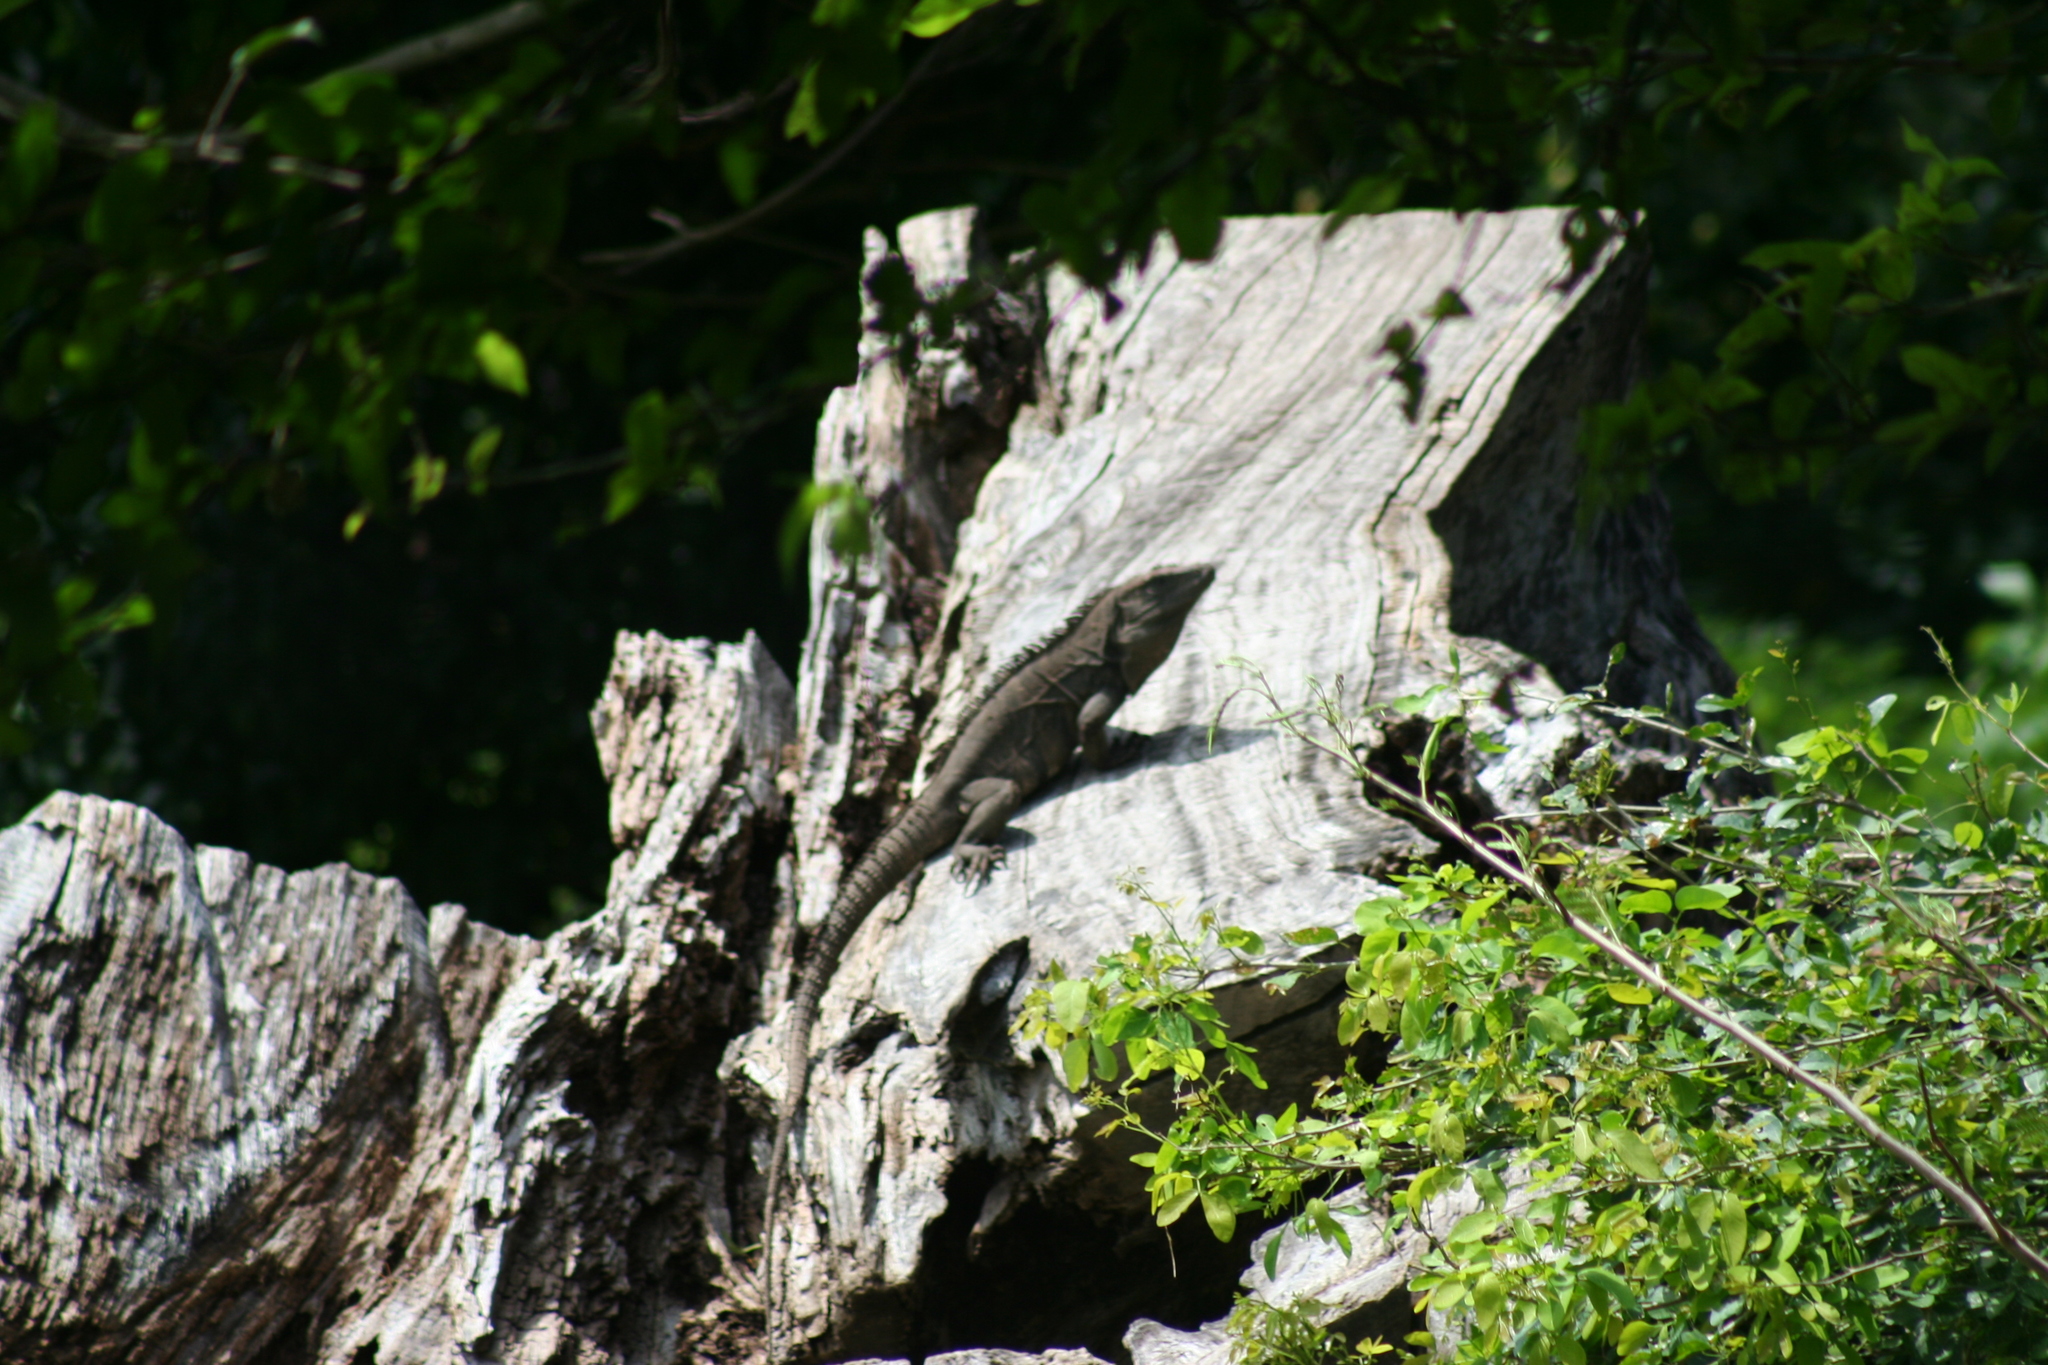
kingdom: Animalia
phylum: Chordata
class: Squamata
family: Iguanidae
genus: Ctenosaura
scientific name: Ctenosaura similis
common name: Black spiny-tailed iguana
